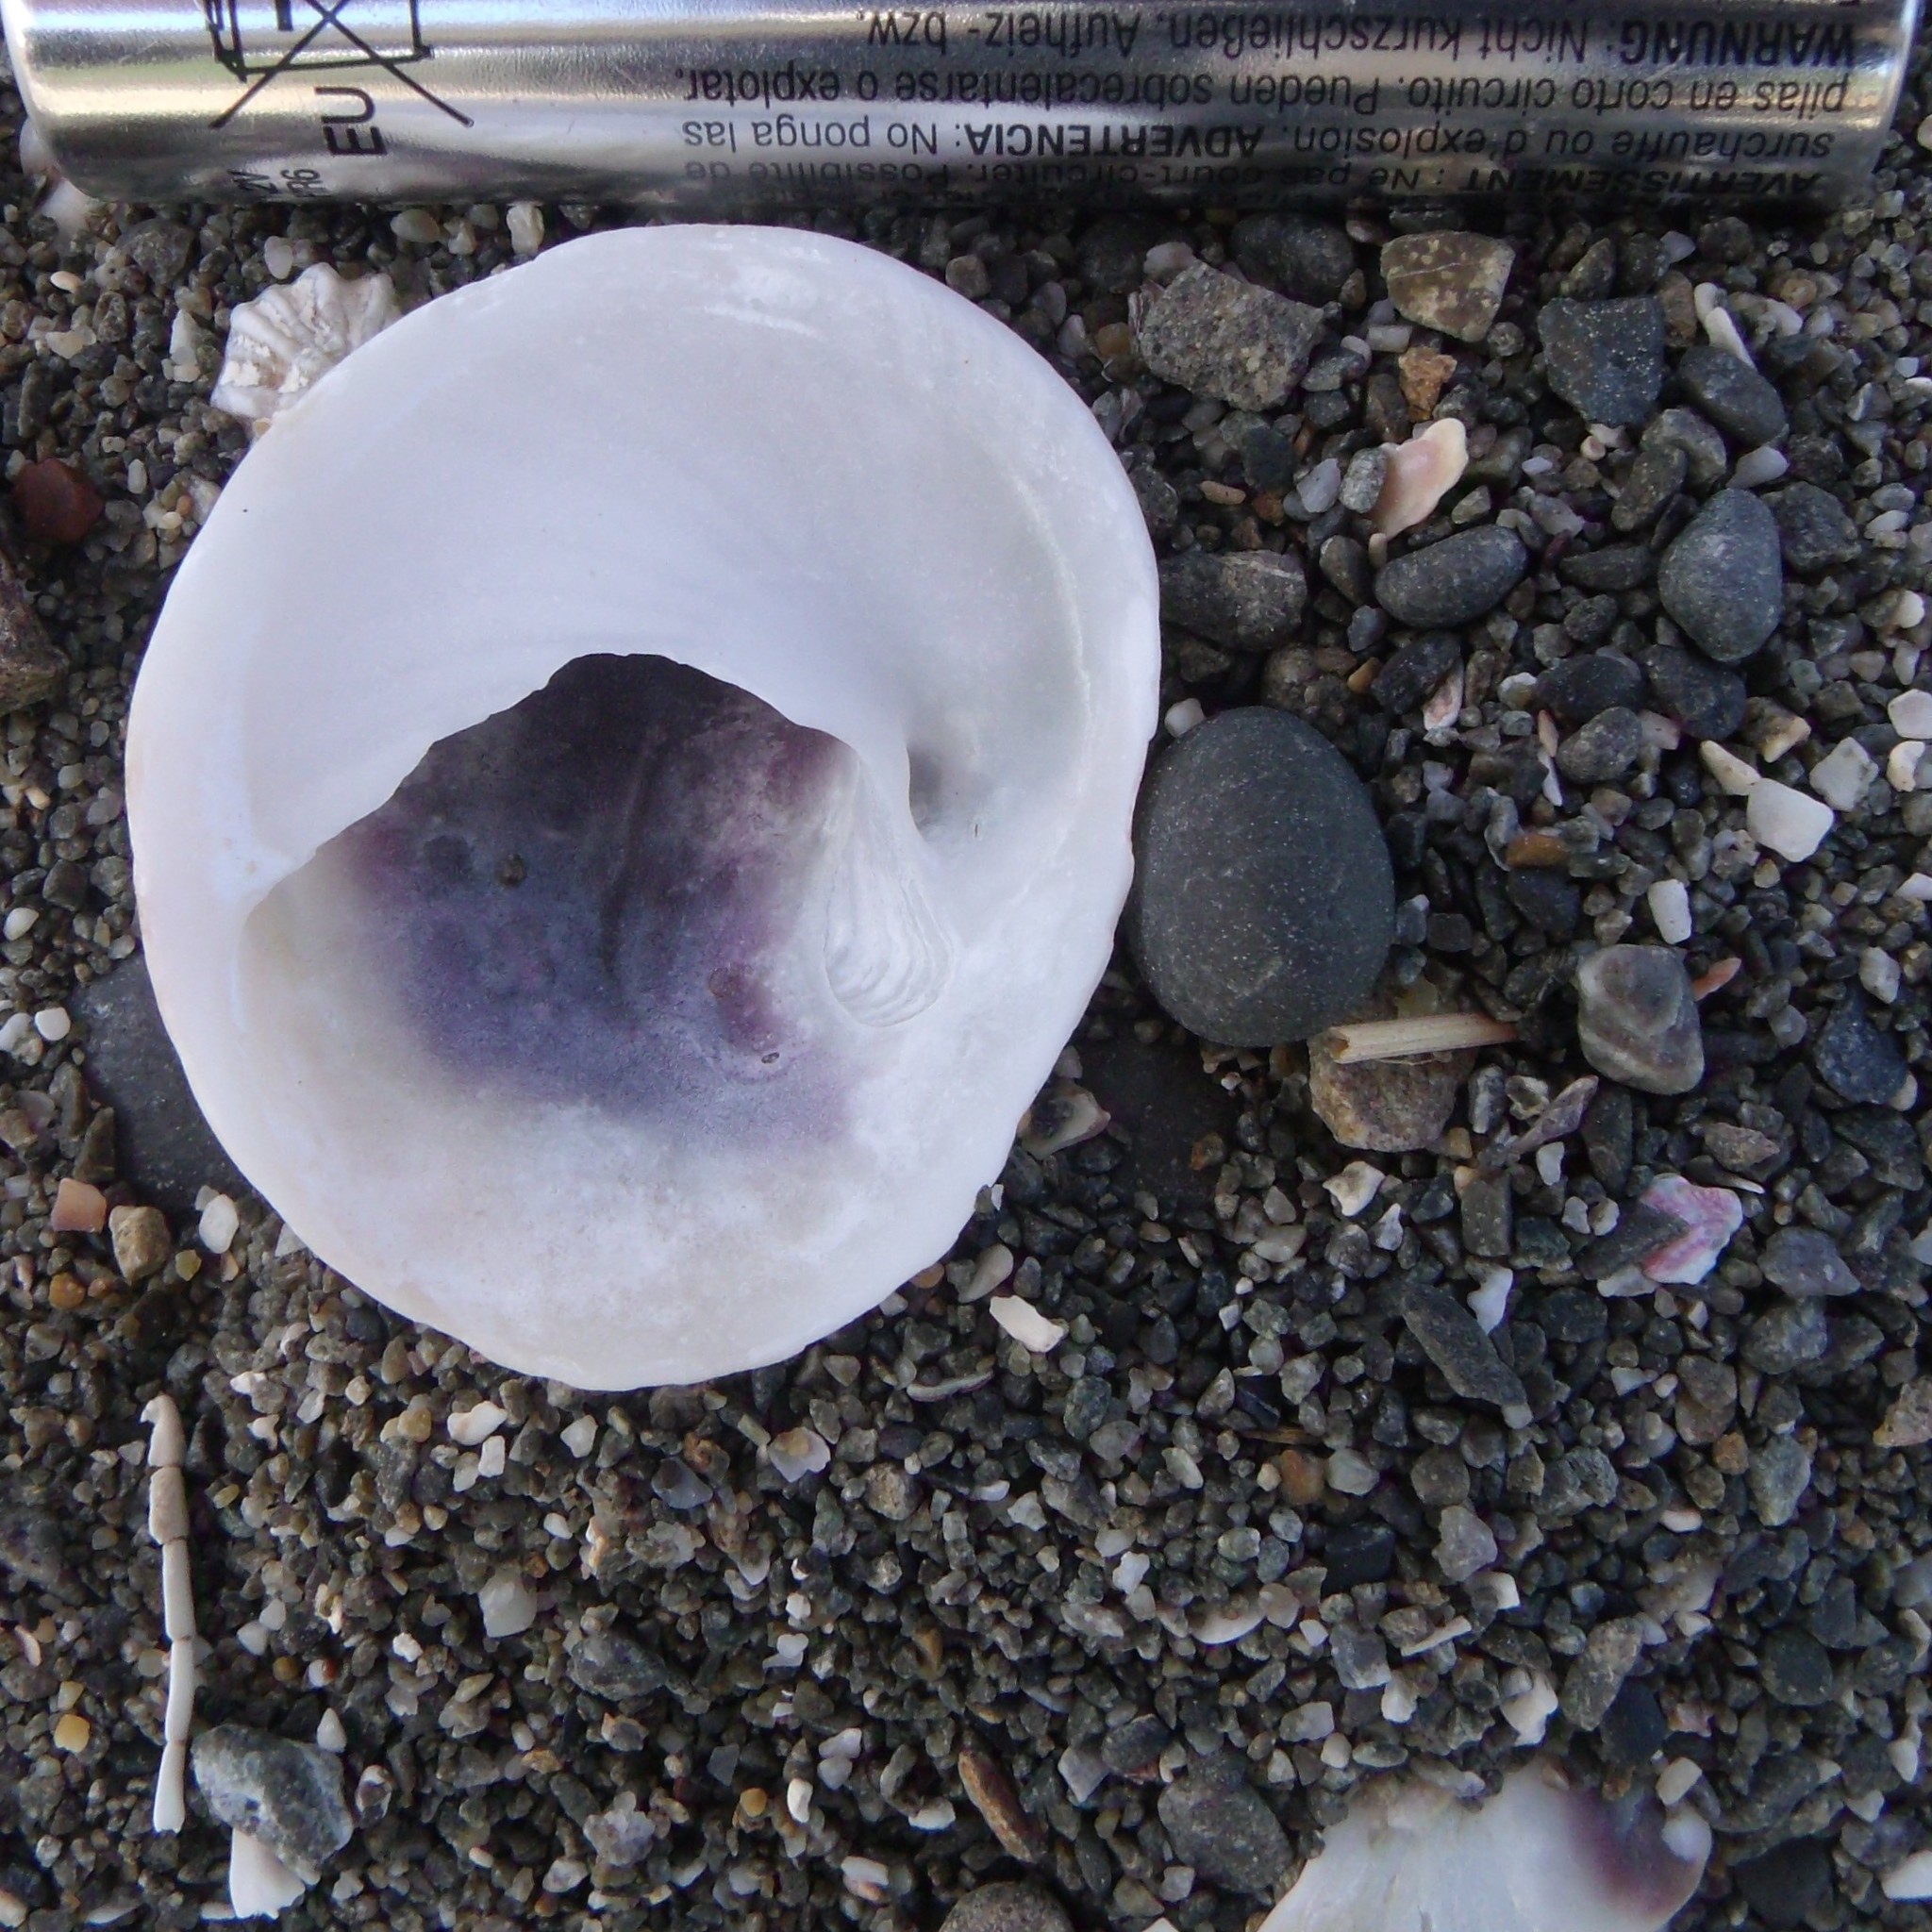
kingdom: Animalia
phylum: Mollusca
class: Gastropoda
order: Littorinimorpha
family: Calyptraeidae
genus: Sigapatella
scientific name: Sigapatella novaezelandiae
